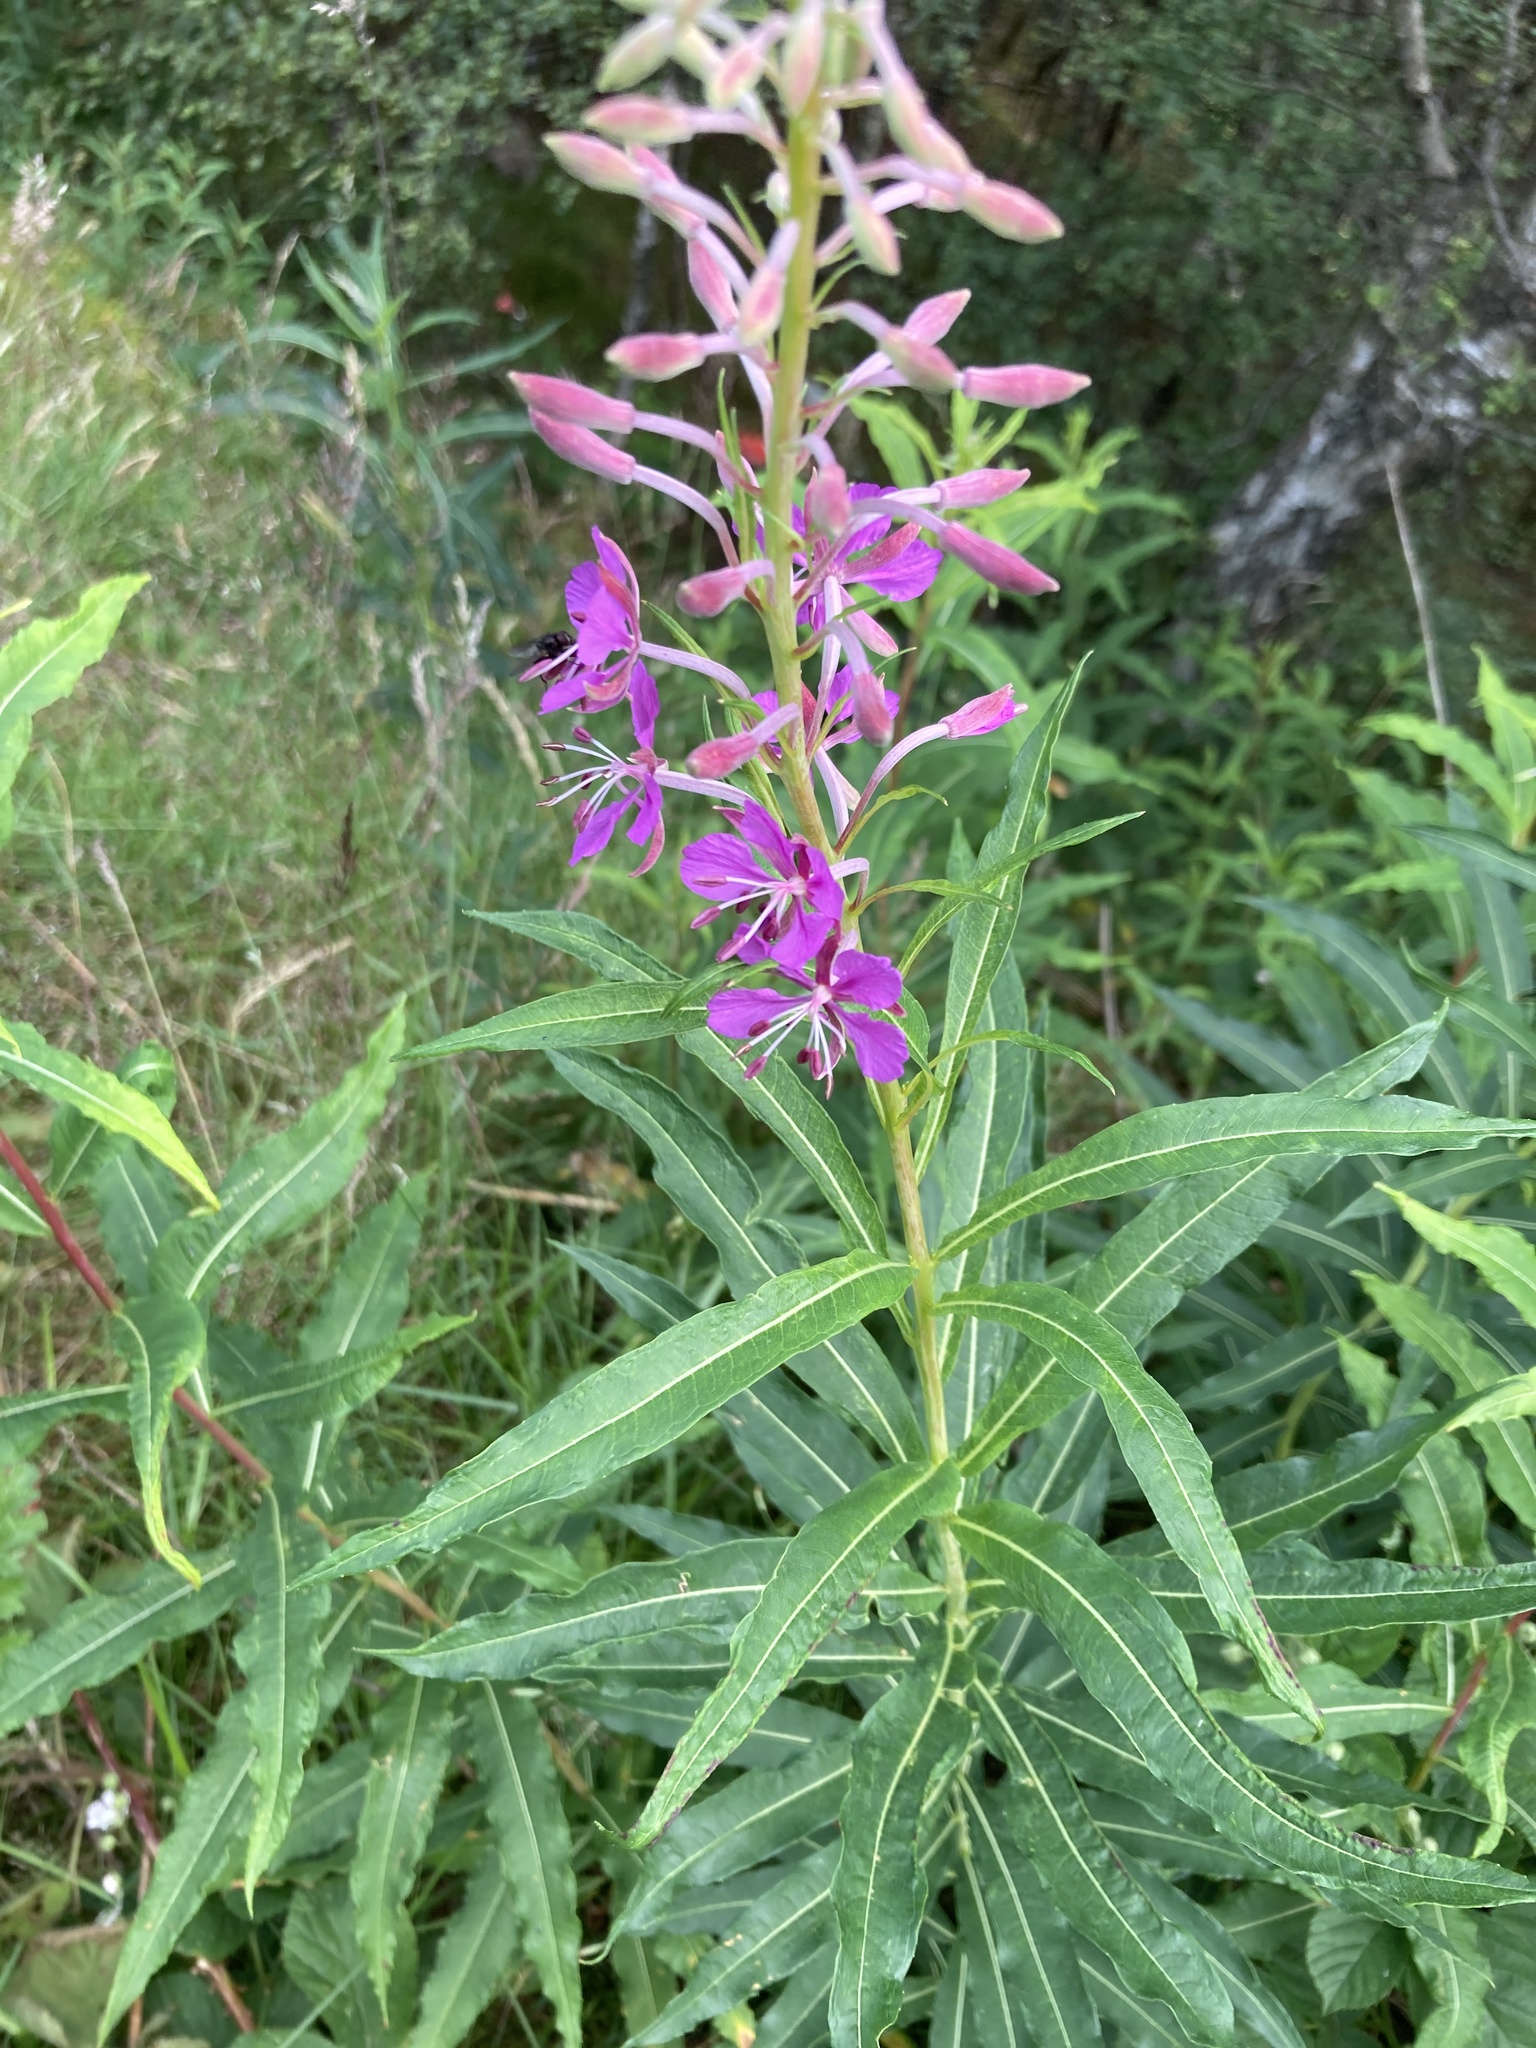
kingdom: Plantae
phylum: Tracheophyta
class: Magnoliopsida
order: Myrtales
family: Onagraceae
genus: Chamaenerion
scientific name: Chamaenerion angustifolium
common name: Fireweed
